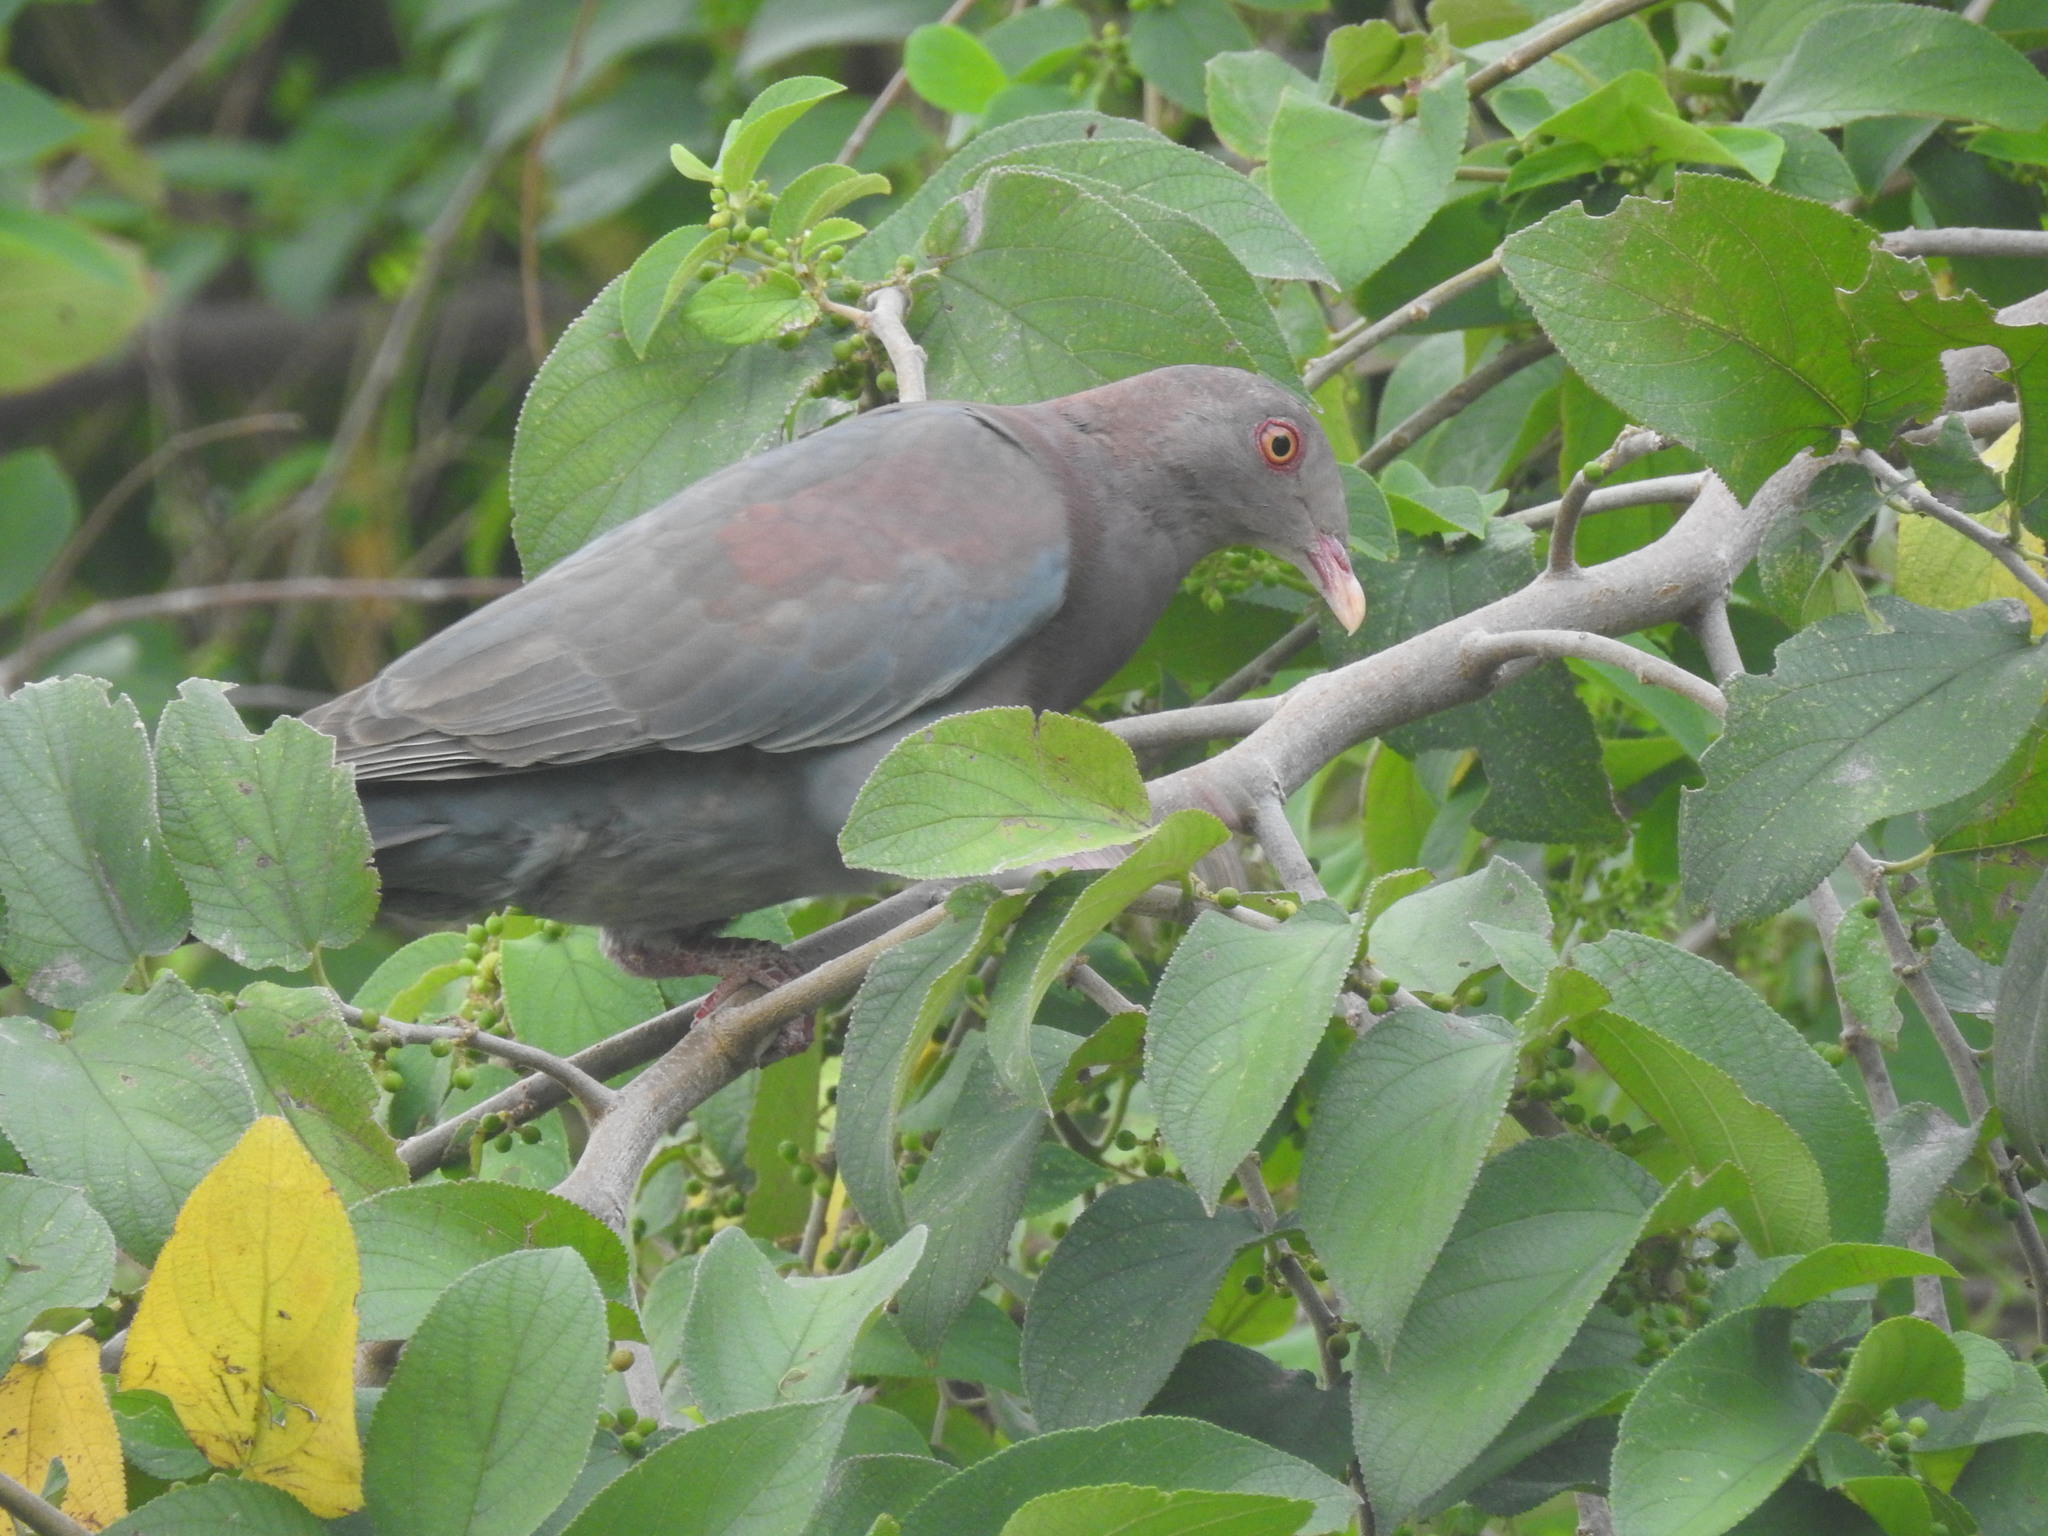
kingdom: Animalia
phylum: Chordata
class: Aves
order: Columbiformes
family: Columbidae
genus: Patagioenas
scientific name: Patagioenas flavirostris
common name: Red-billed pigeon
